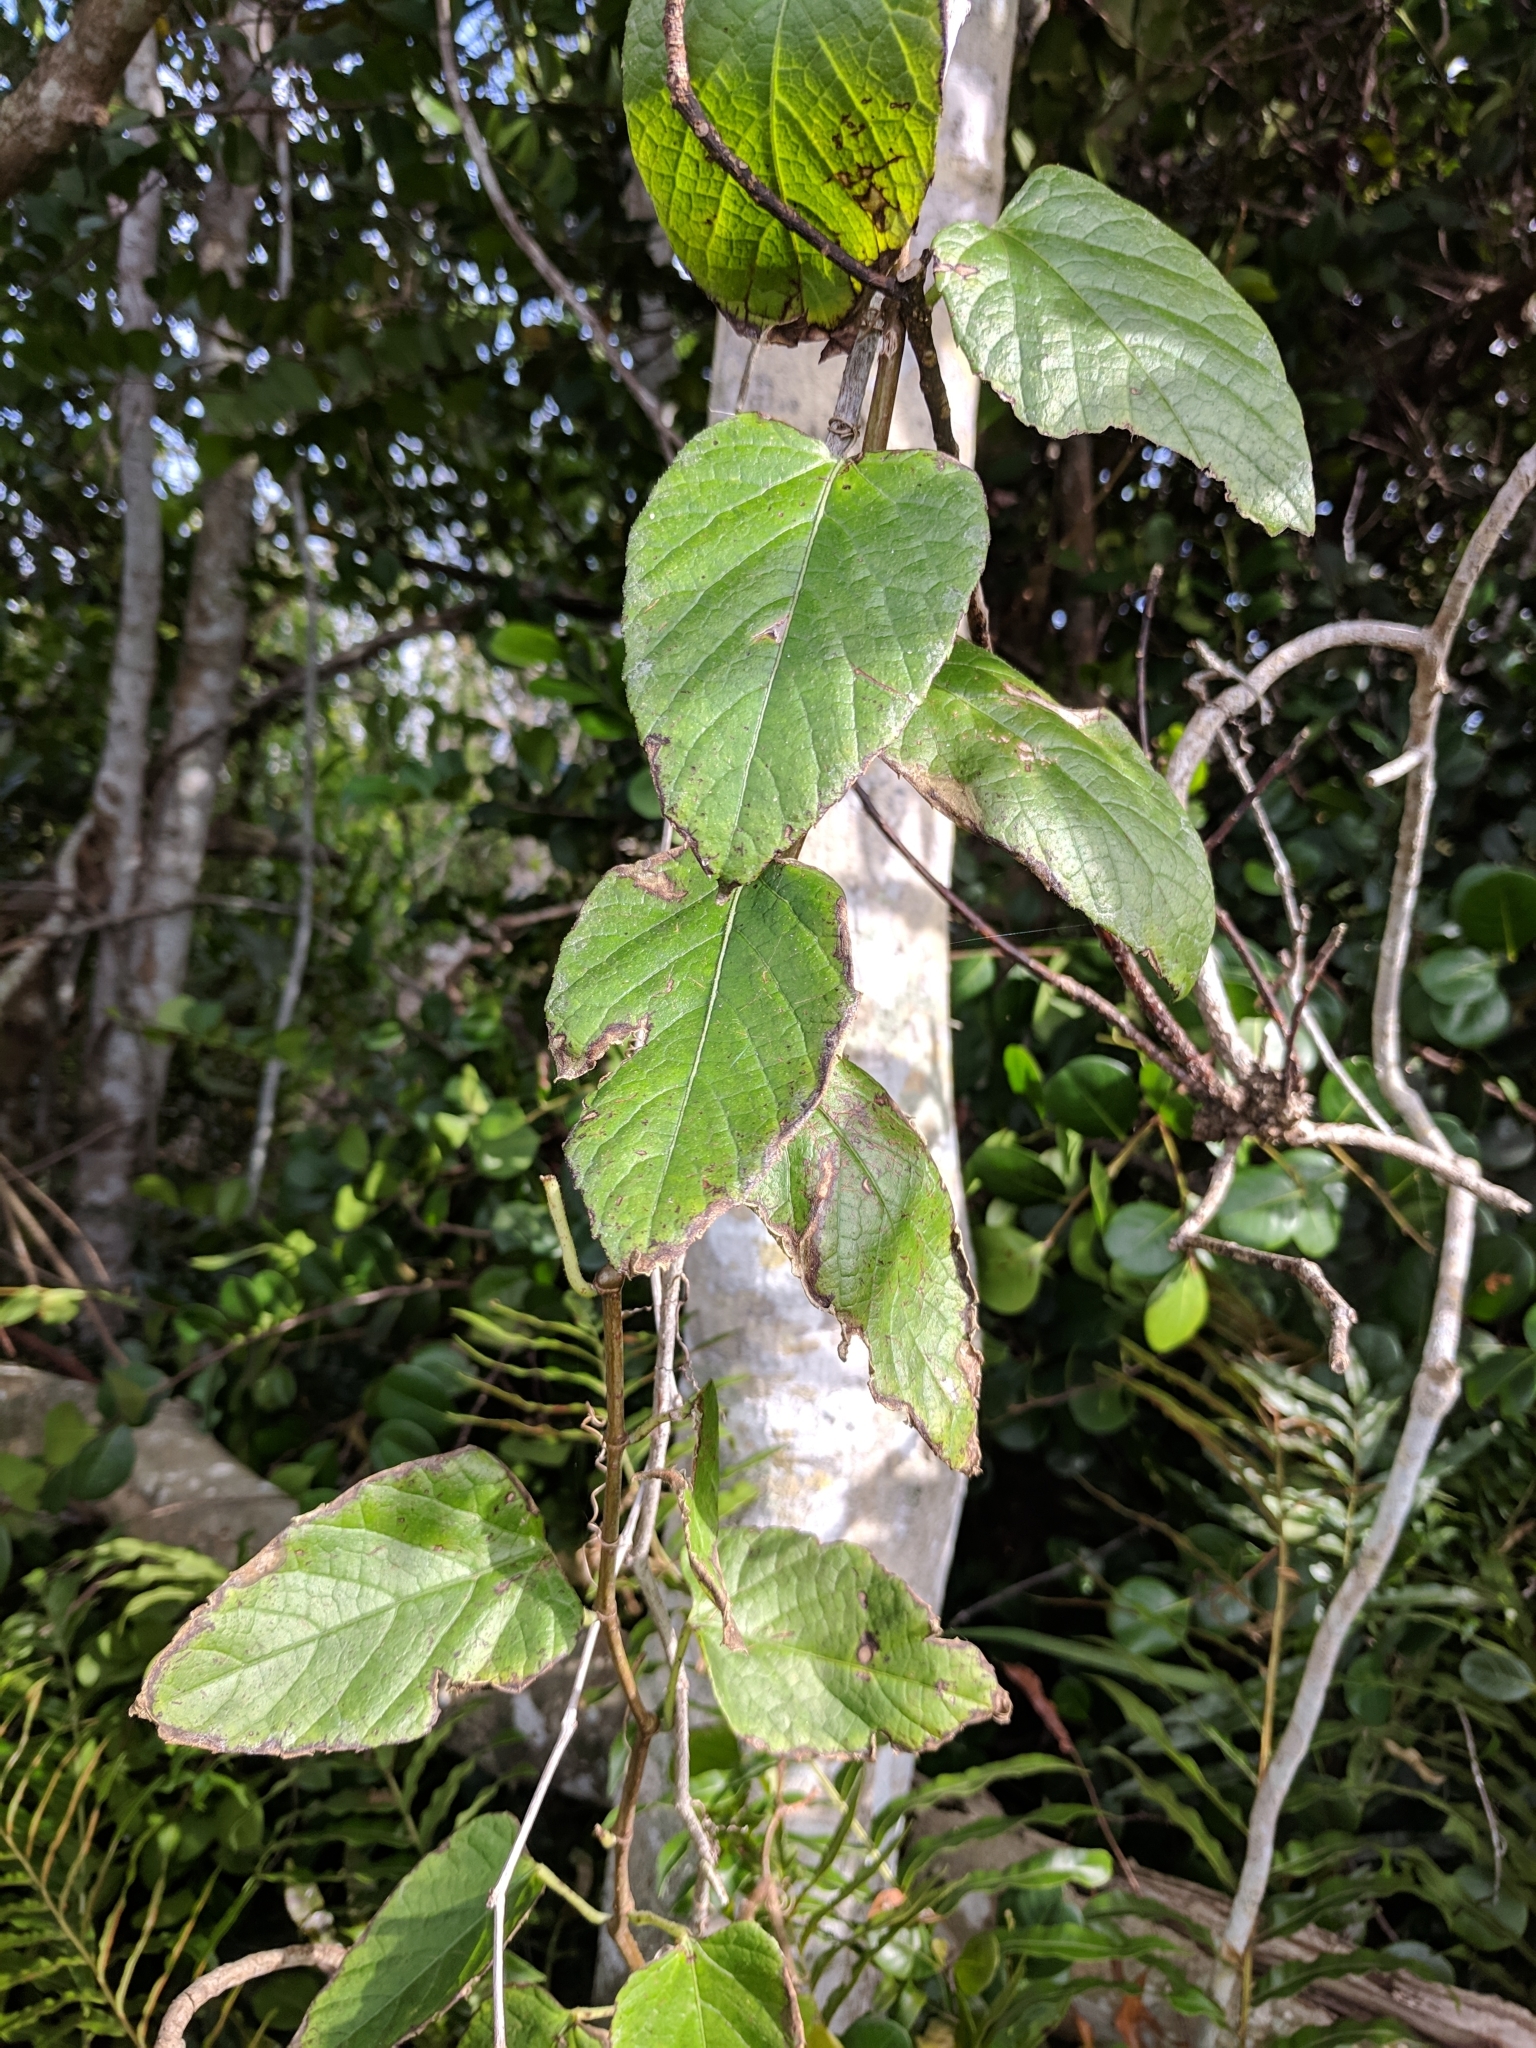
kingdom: Plantae
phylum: Tracheophyta
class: Magnoliopsida
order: Vitales
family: Vitaceae
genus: Cissus
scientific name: Cissus verticillata
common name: Princess vine
